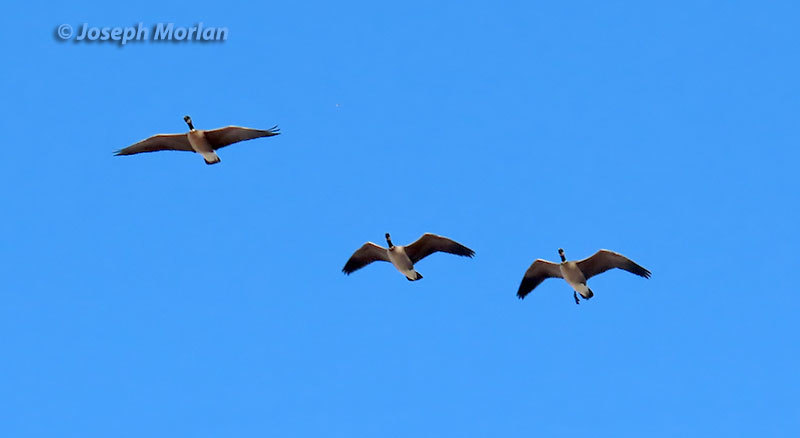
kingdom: Animalia
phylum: Chordata
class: Aves
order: Anseriformes
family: Anatidae
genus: Branta
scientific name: Branta hutchinsii
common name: Cackling goose
